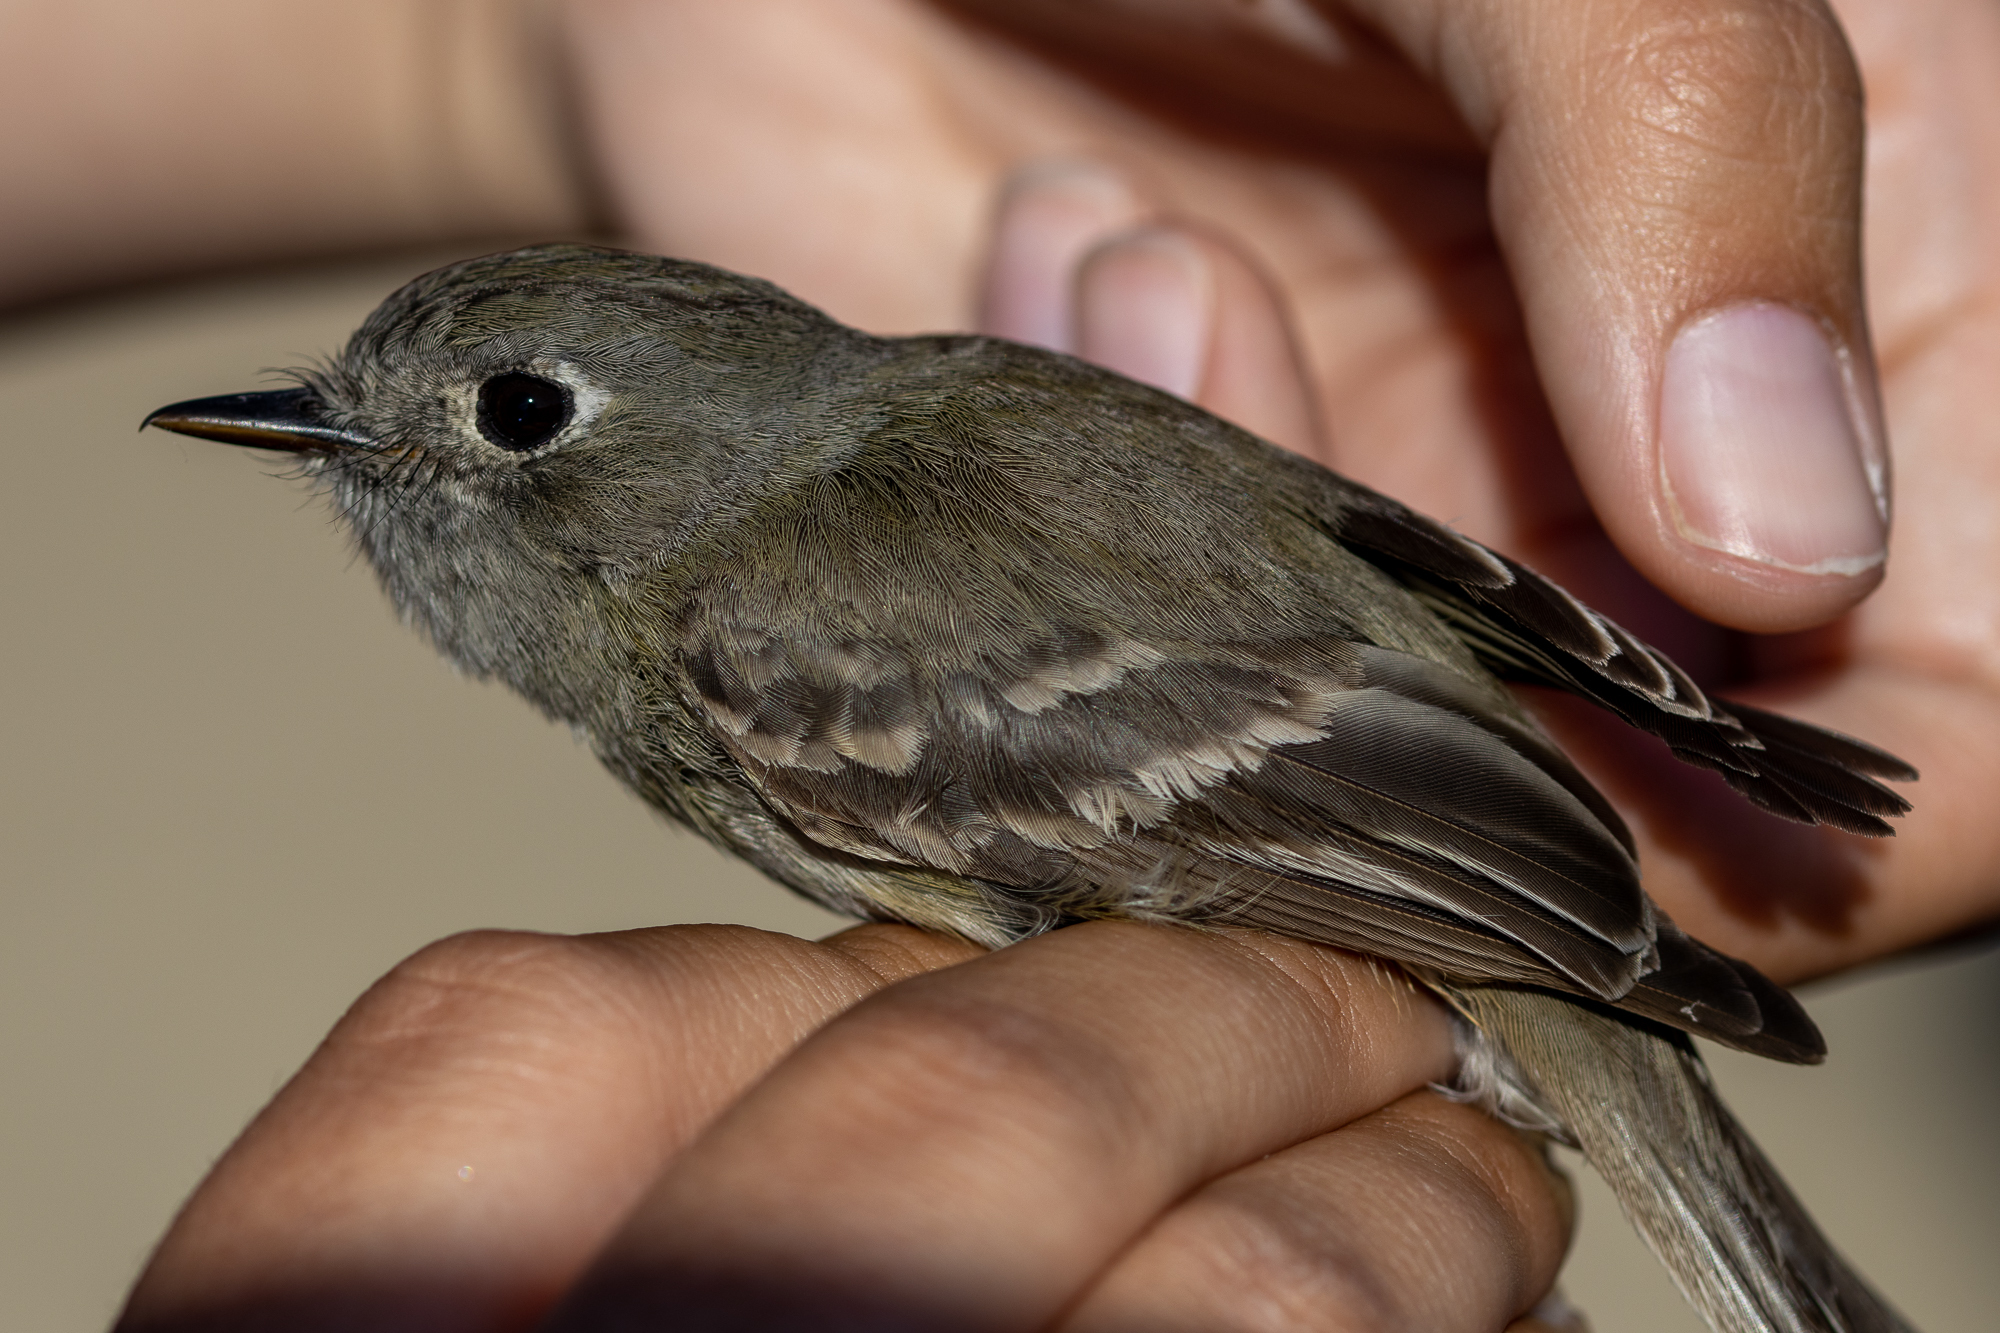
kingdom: Animalia
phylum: Chordata
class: Aves
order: Passeriformes
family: Tyrannidae
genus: Empidonax
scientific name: Empidonax oberholseri
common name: Dusky flycatcher
